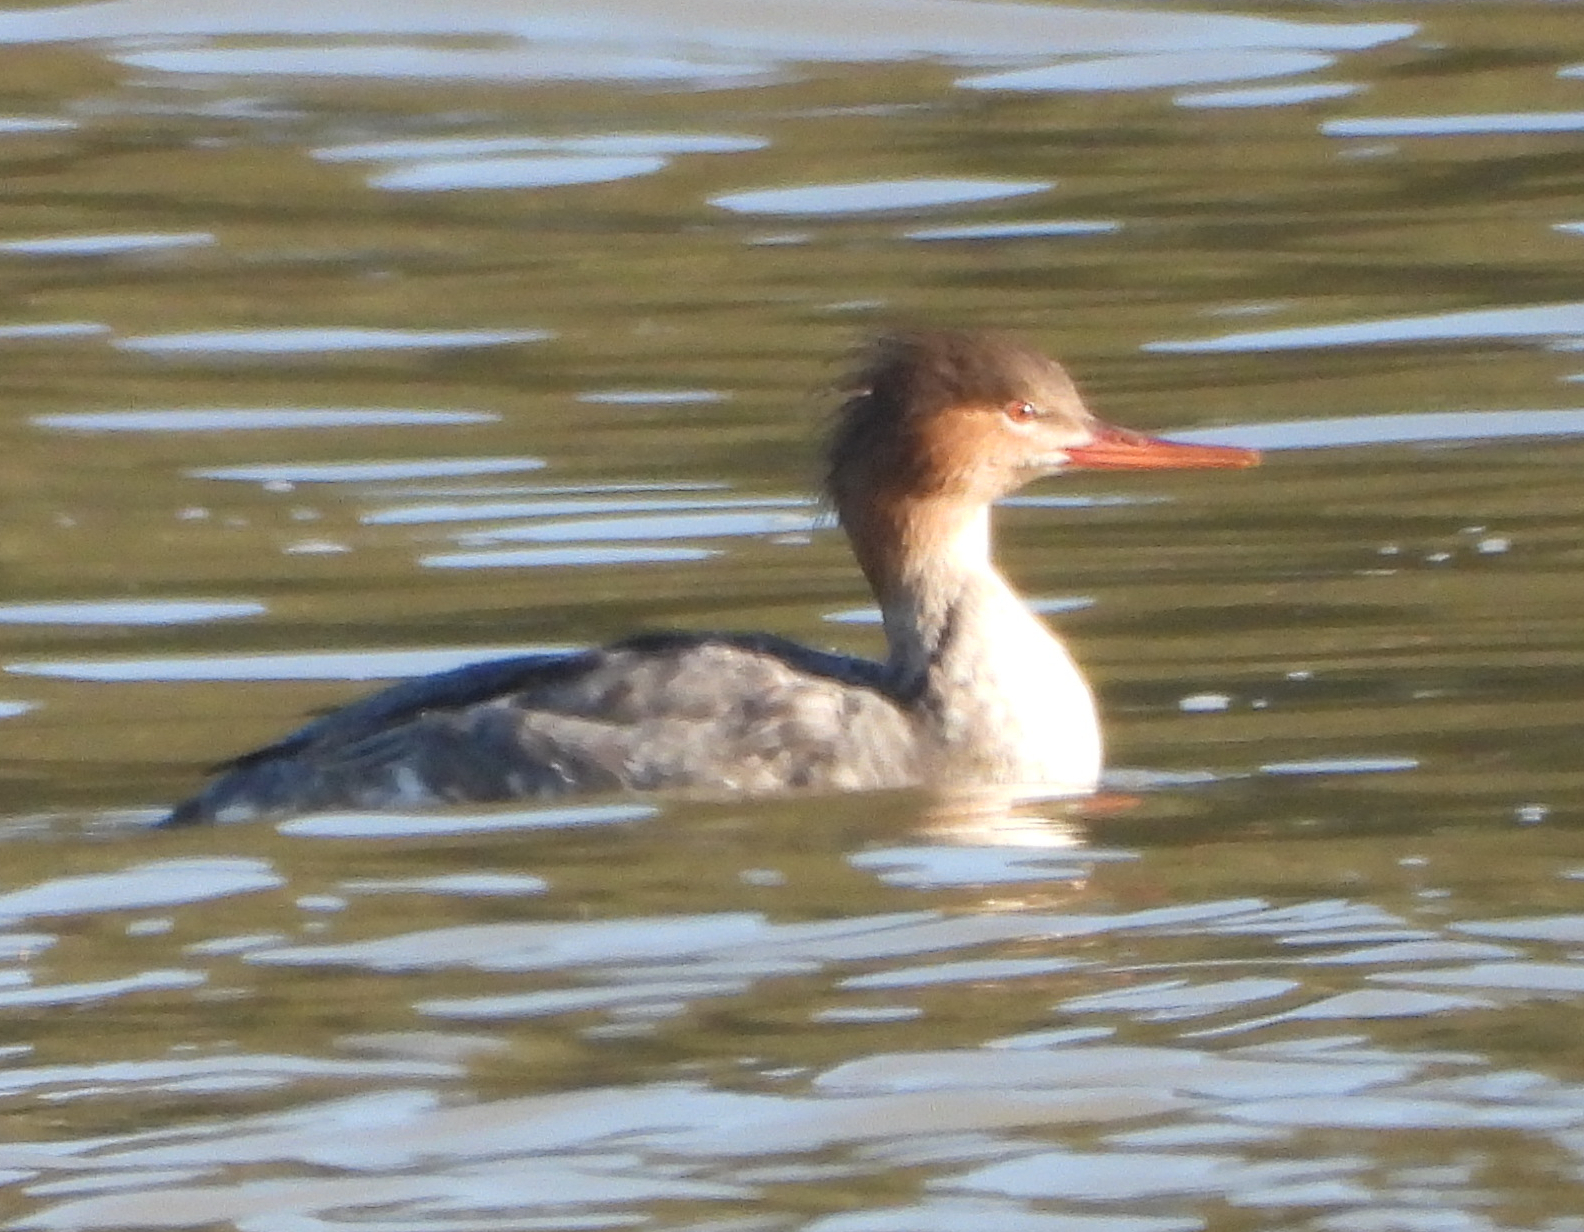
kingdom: Animalia
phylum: Chordata
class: Aves
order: Anseriformes
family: Anatidae
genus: Mergus
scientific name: Mergus serrator
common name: Red-breasted merganser
